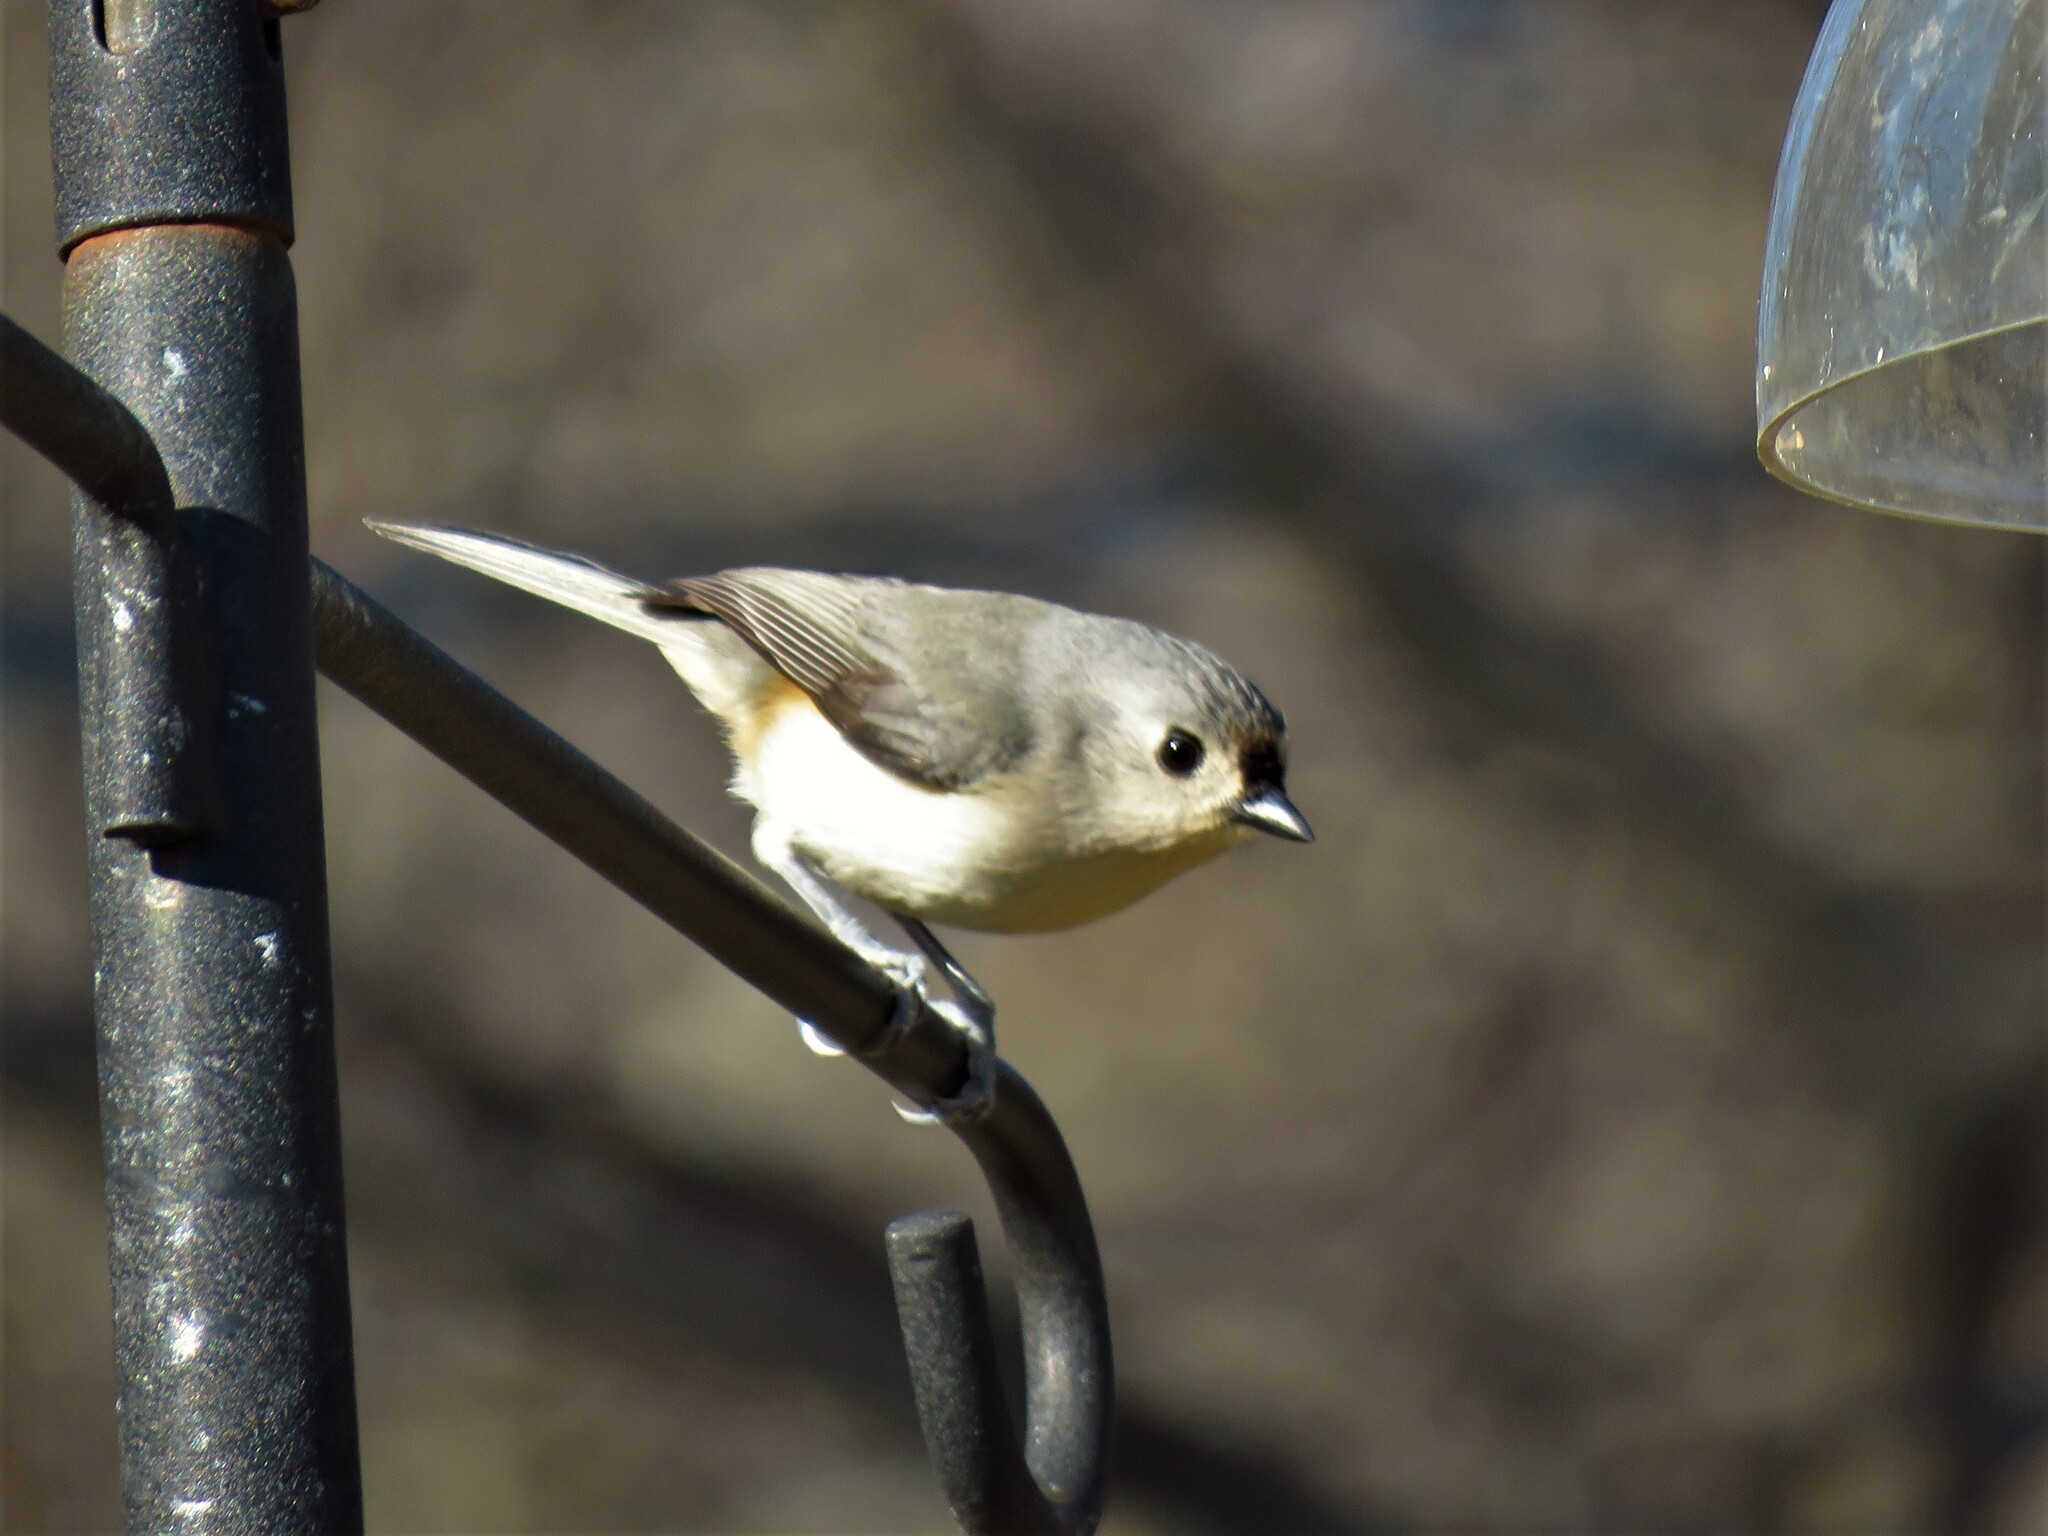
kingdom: Animalia
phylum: Chordata
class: Aves
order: Passeriformes
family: Paridae
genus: Baeolophus
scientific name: Baeolophus bicolor
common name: Tufted titmouse
